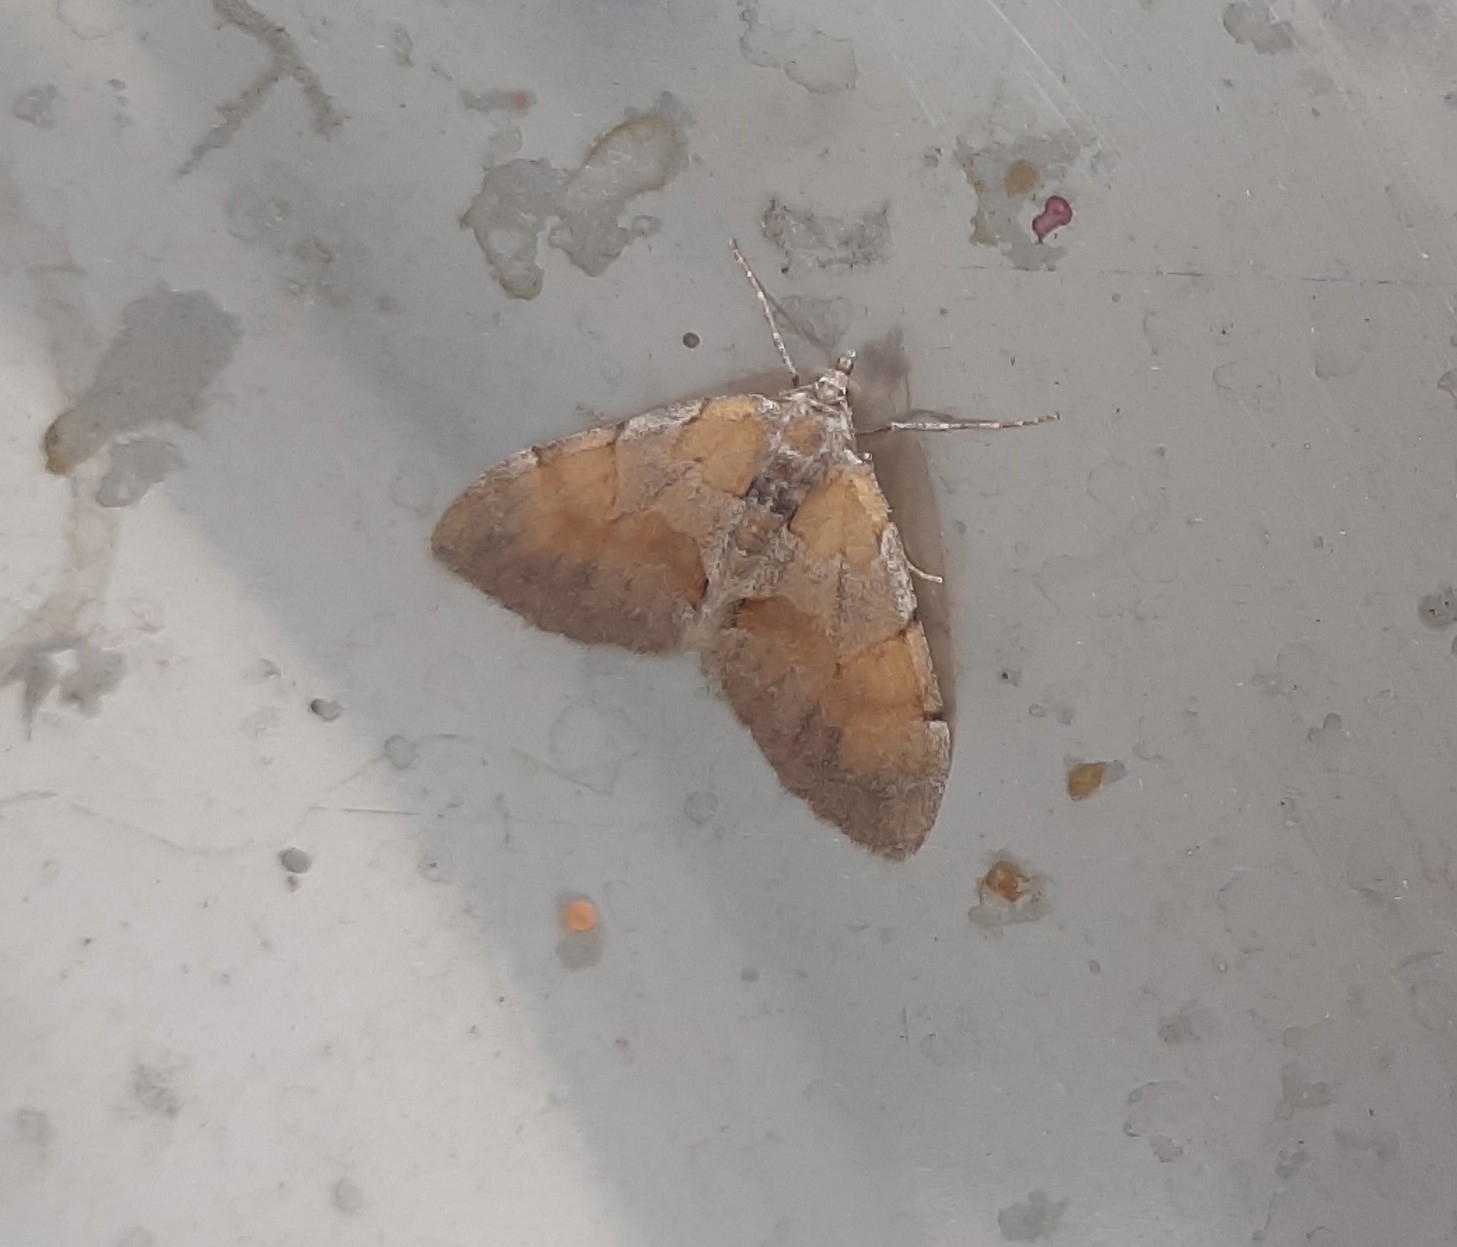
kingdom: Animalia
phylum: Arthropoda
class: Insecta
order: Lepidoptera
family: Geometridae
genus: Pennithera
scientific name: Pennithera firmata
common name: Pine carpet
